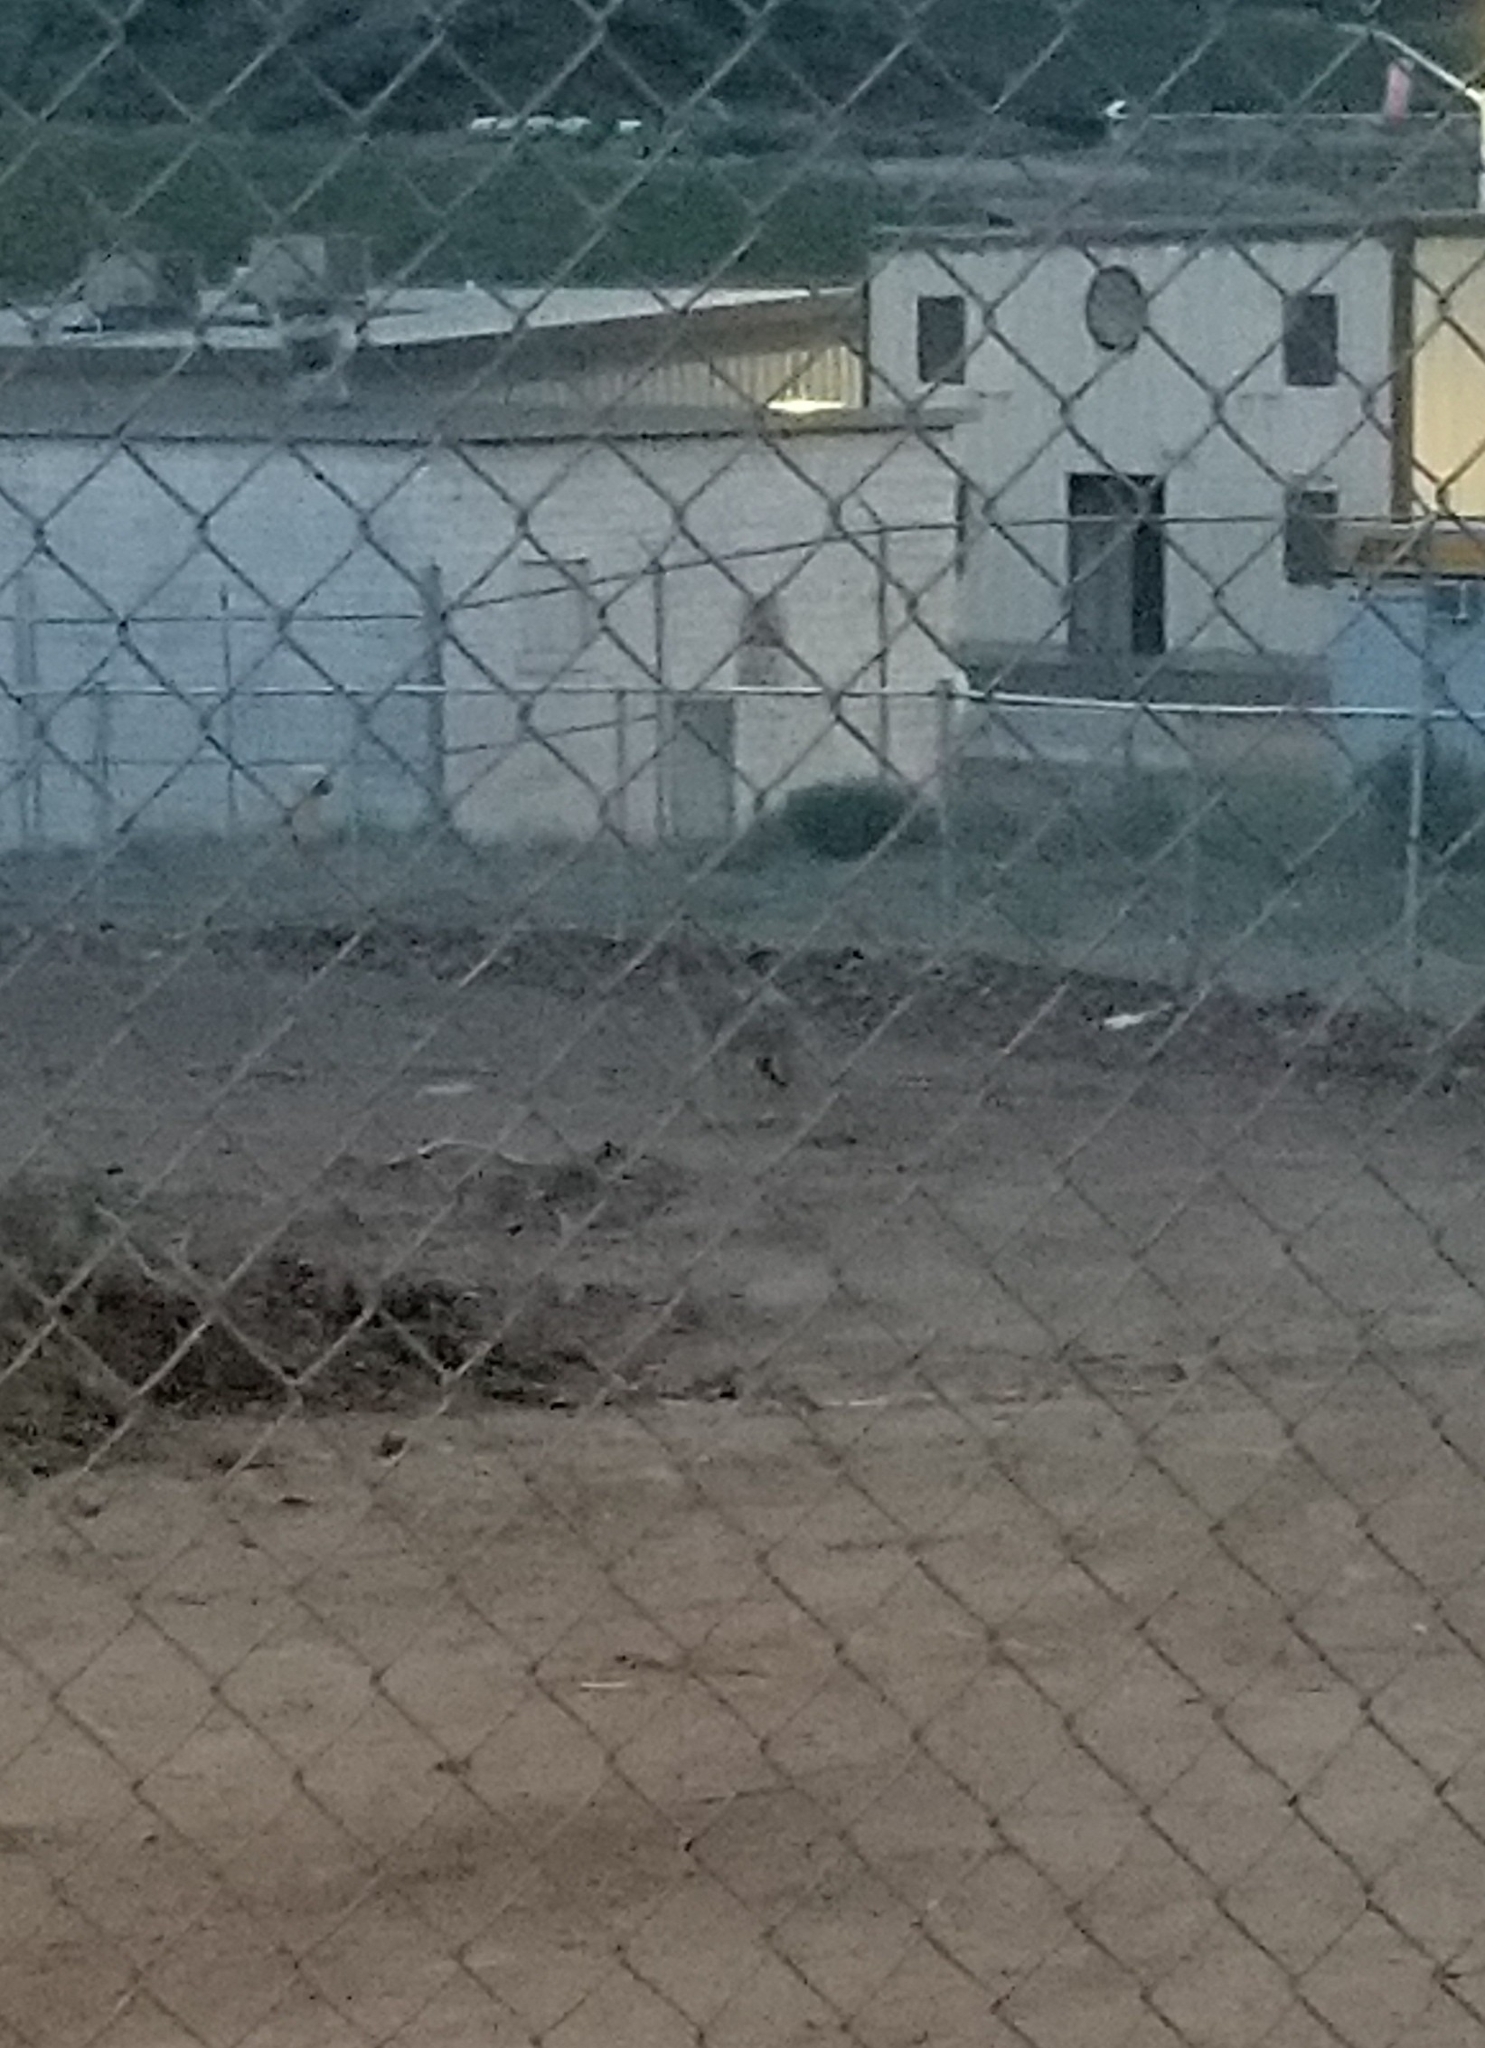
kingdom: Animalia
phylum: Chordata
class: Mammalia
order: Carnivora
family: Canidae
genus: Canis
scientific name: Canis latrans
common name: Coyote
